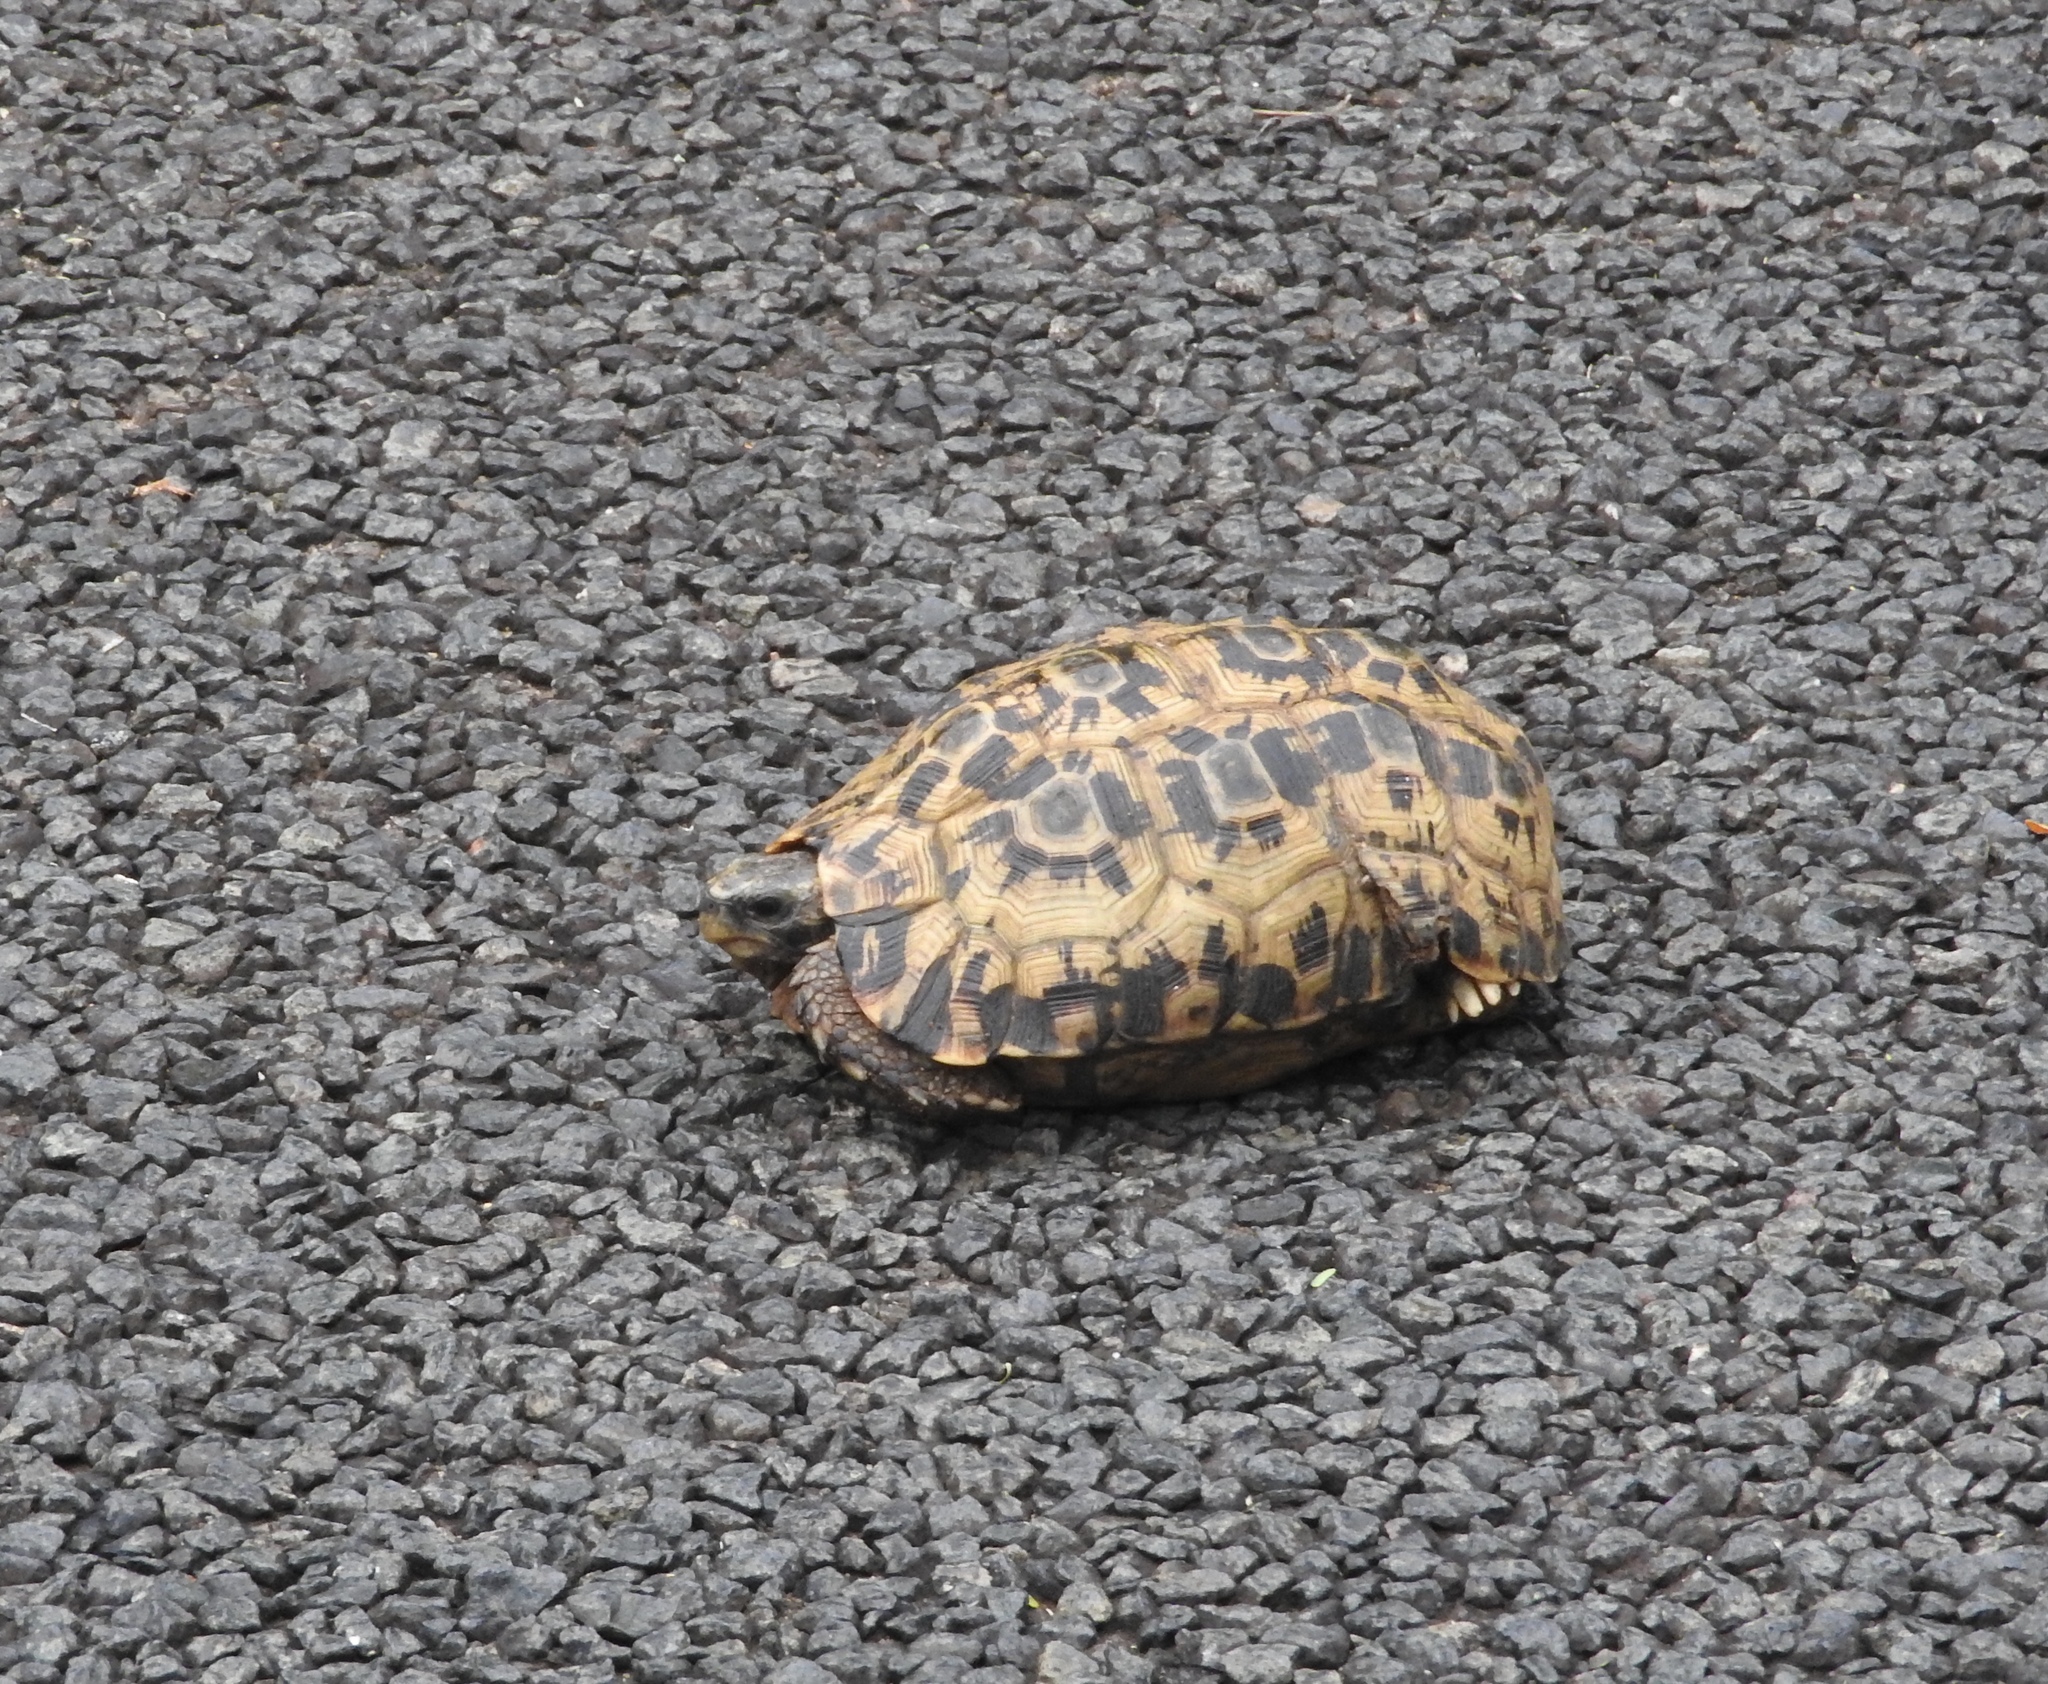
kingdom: Animalia
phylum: Chordata
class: Testudines
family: Testudinidae
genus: Kinixys
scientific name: Kinixys zombensis
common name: Southeastern hinge-back tortoise
